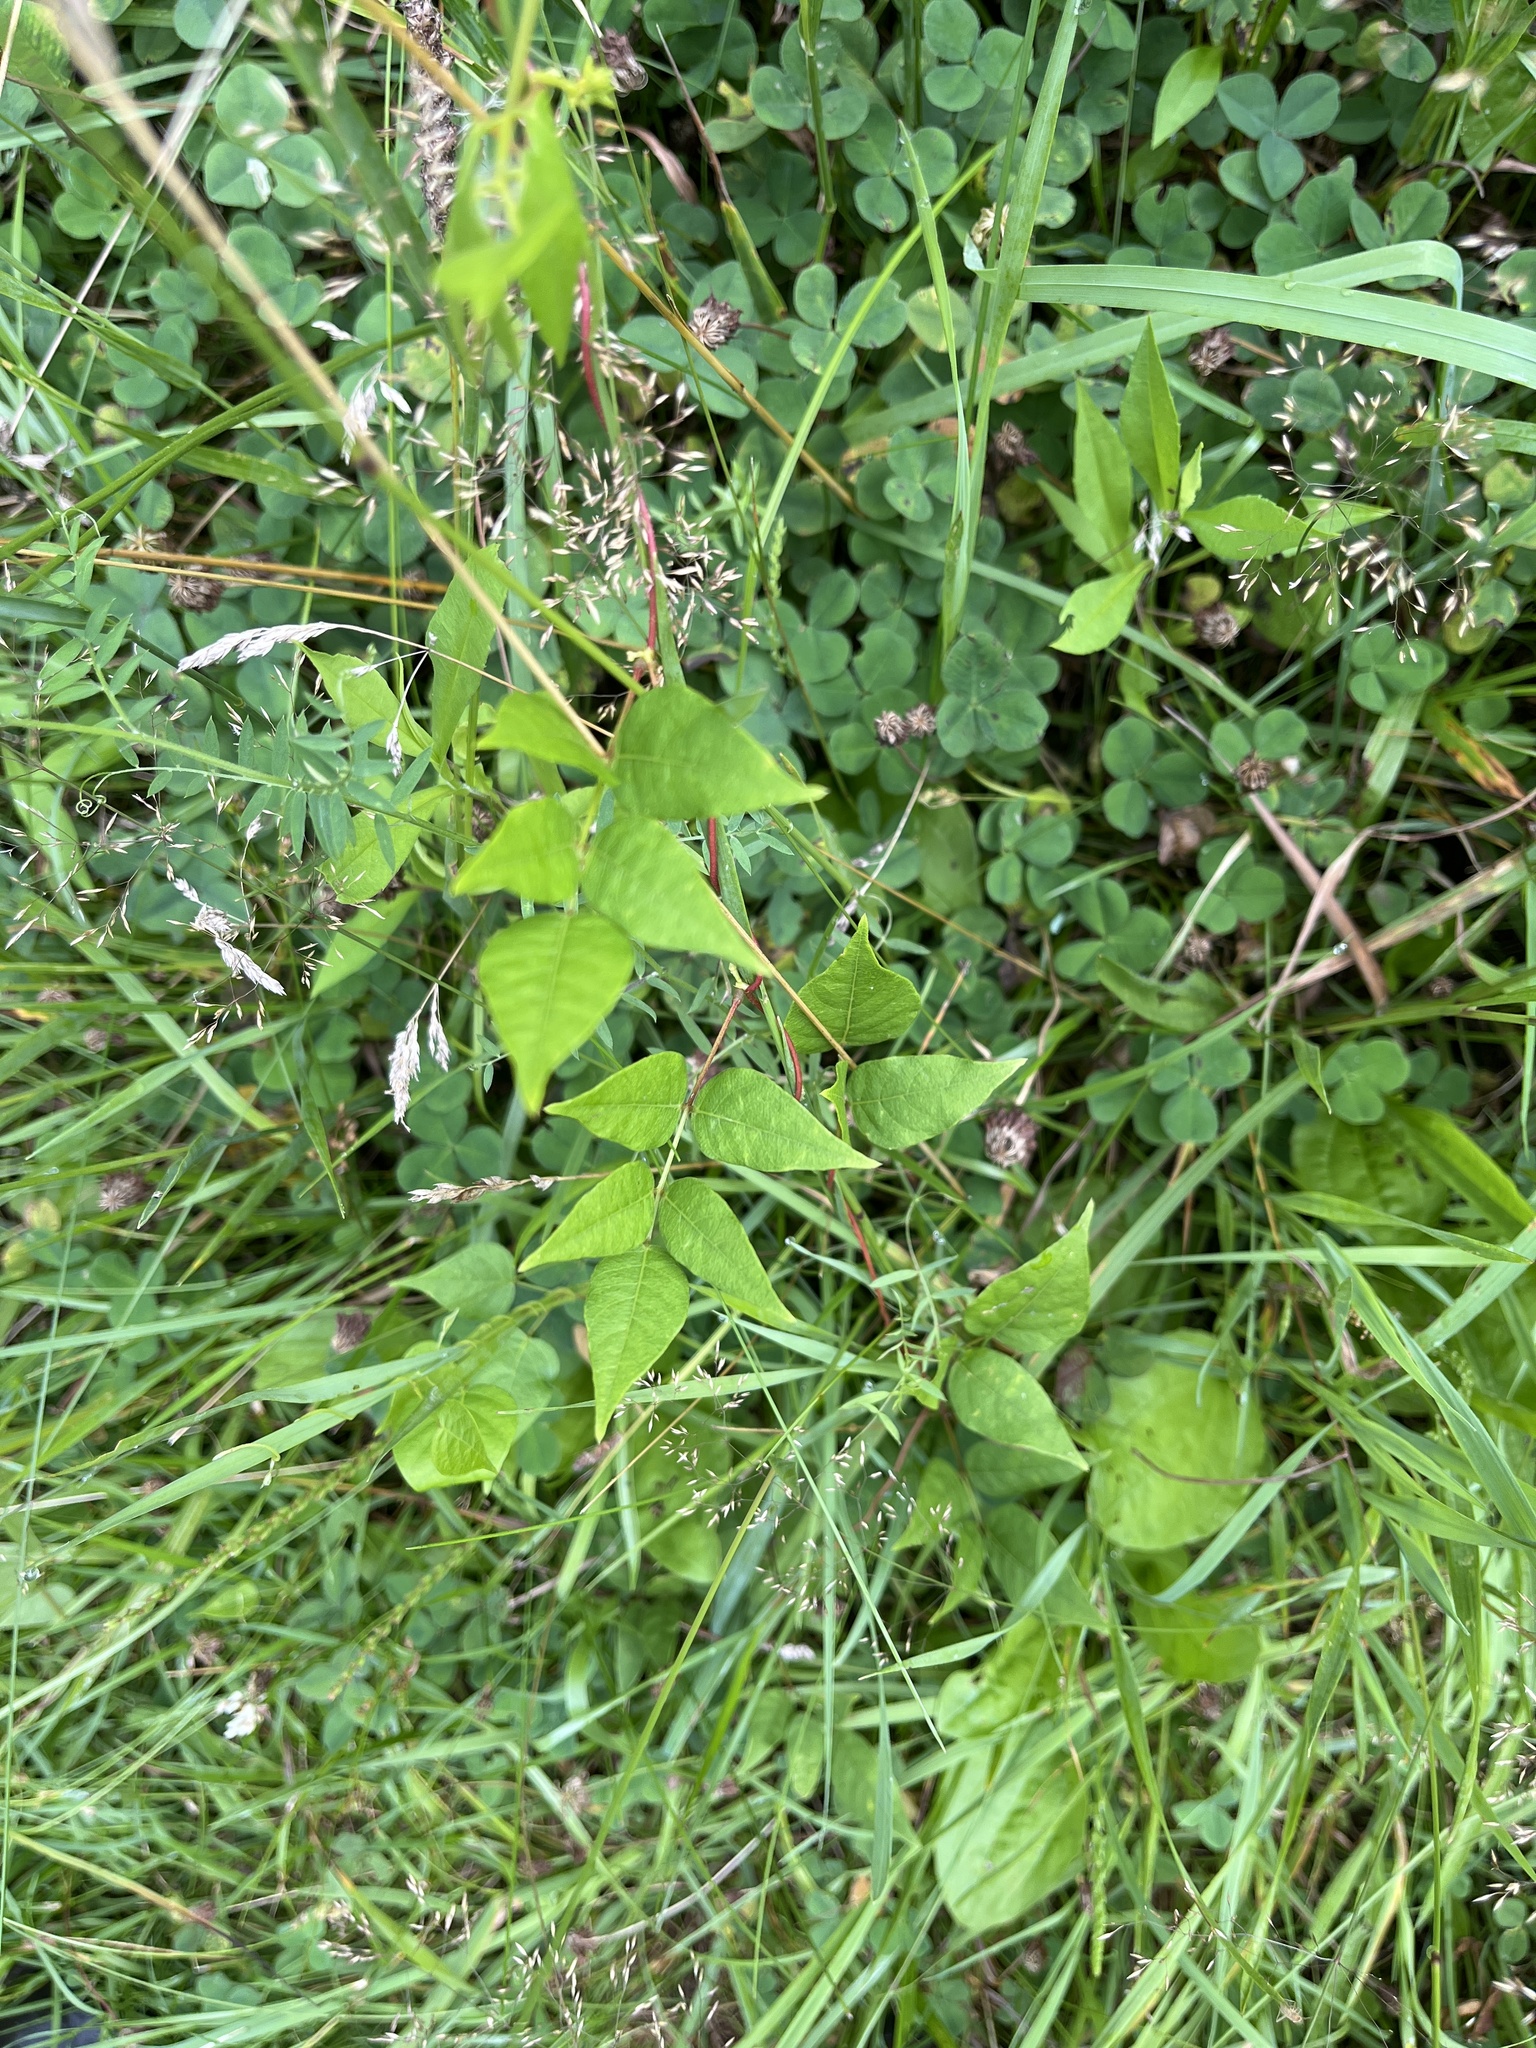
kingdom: Plantae
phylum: Tracheophyta
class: Magnoliopsida
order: Fabales
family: Fabaceae
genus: Apios
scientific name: Apios americana
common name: American potato-bean
